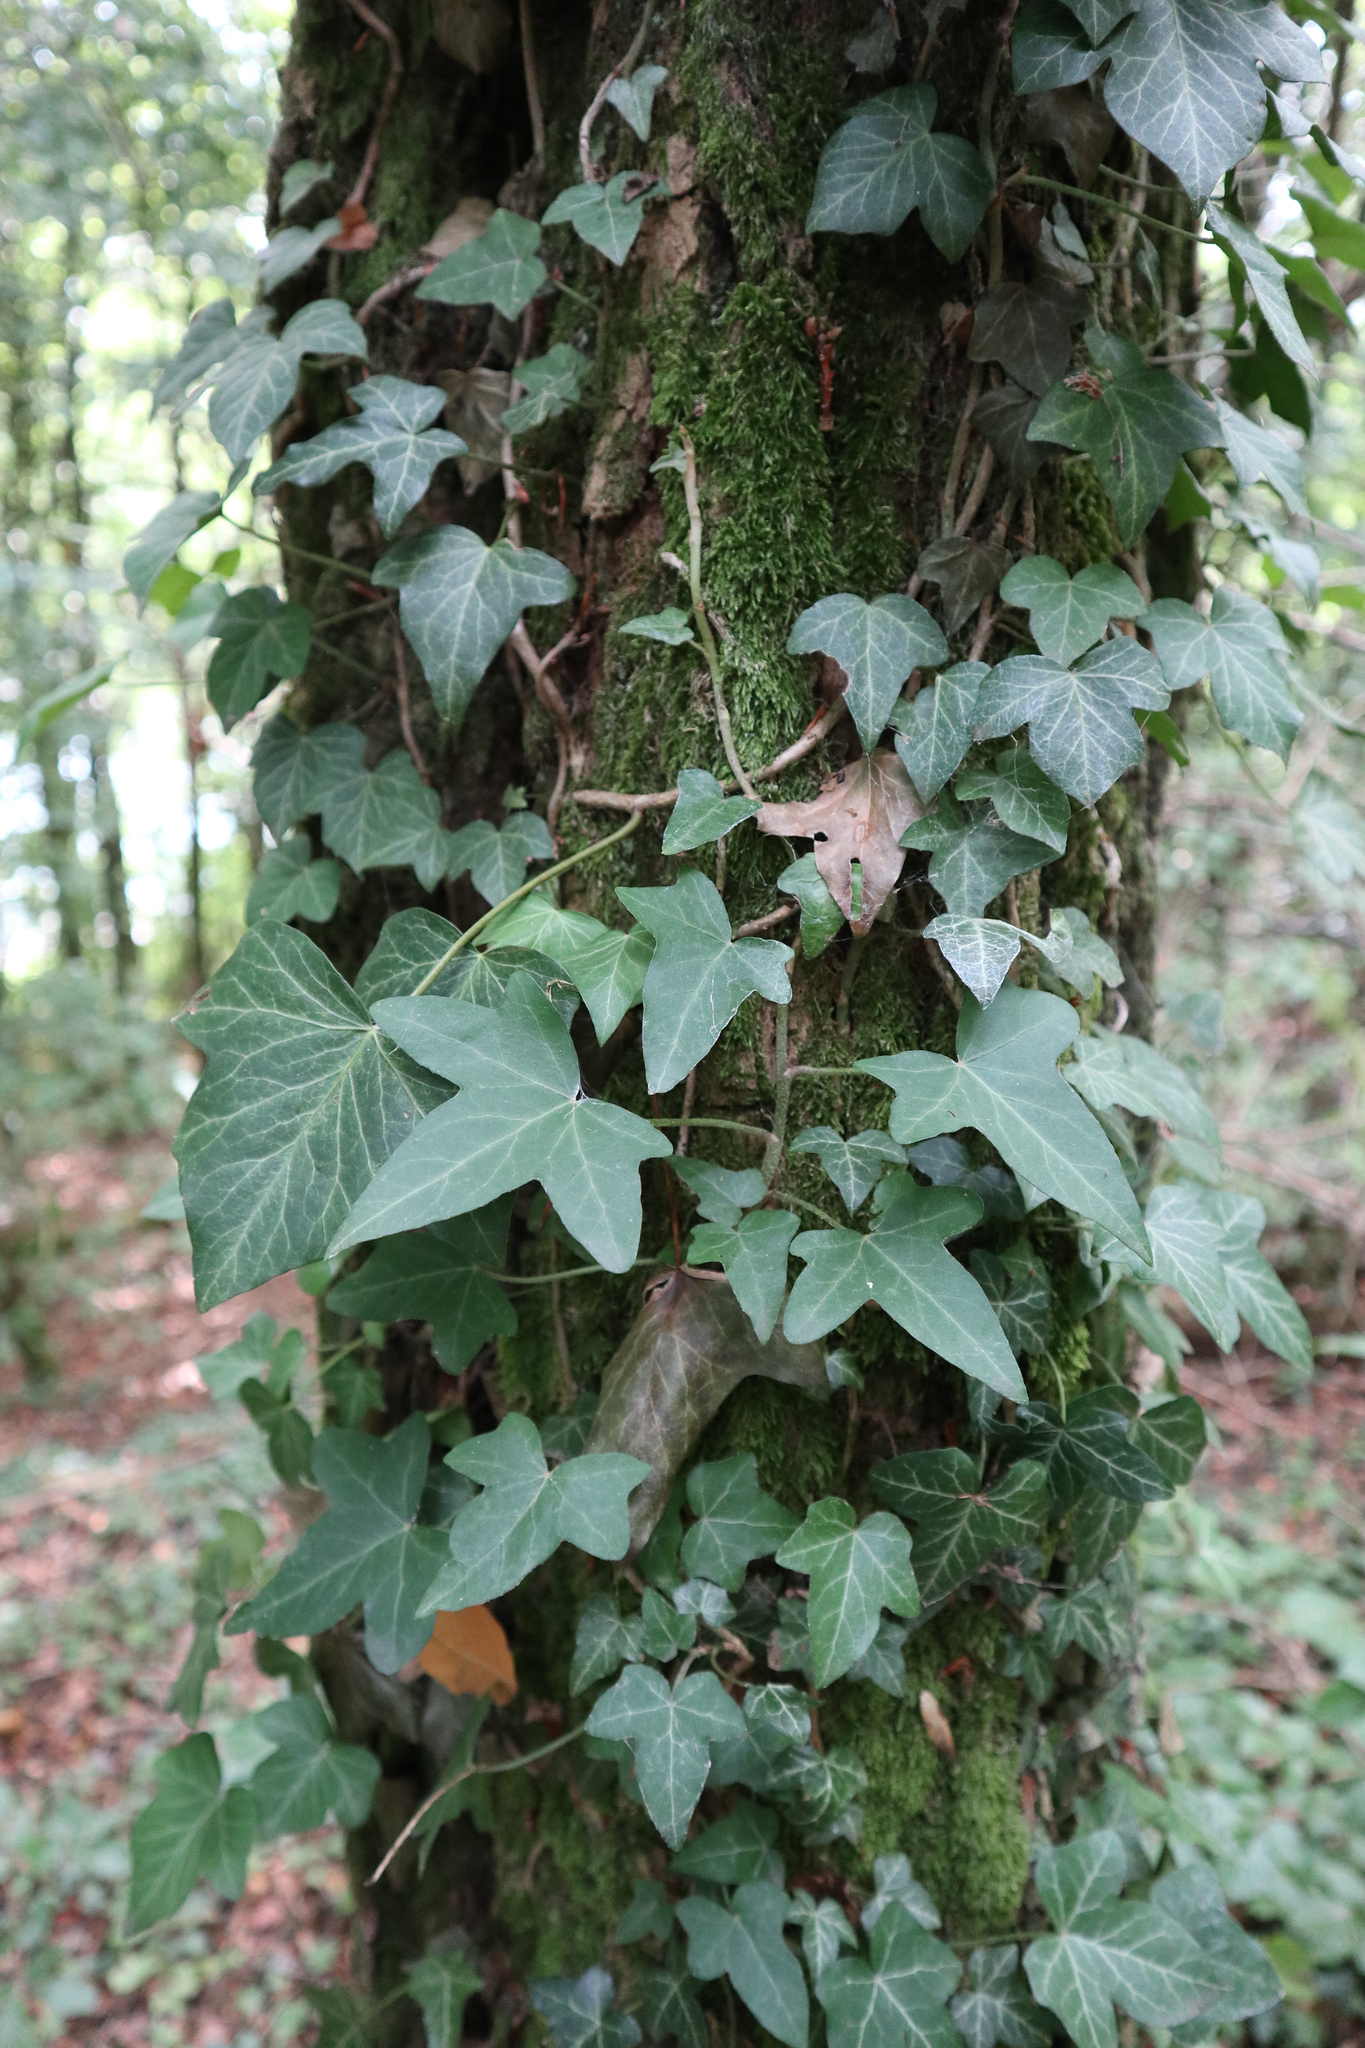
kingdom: Plantae
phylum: Tracheophyta
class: Magnoliopsida
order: Apiales
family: Araliaceae
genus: Hedera
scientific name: Hedera helix
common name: Ivy
